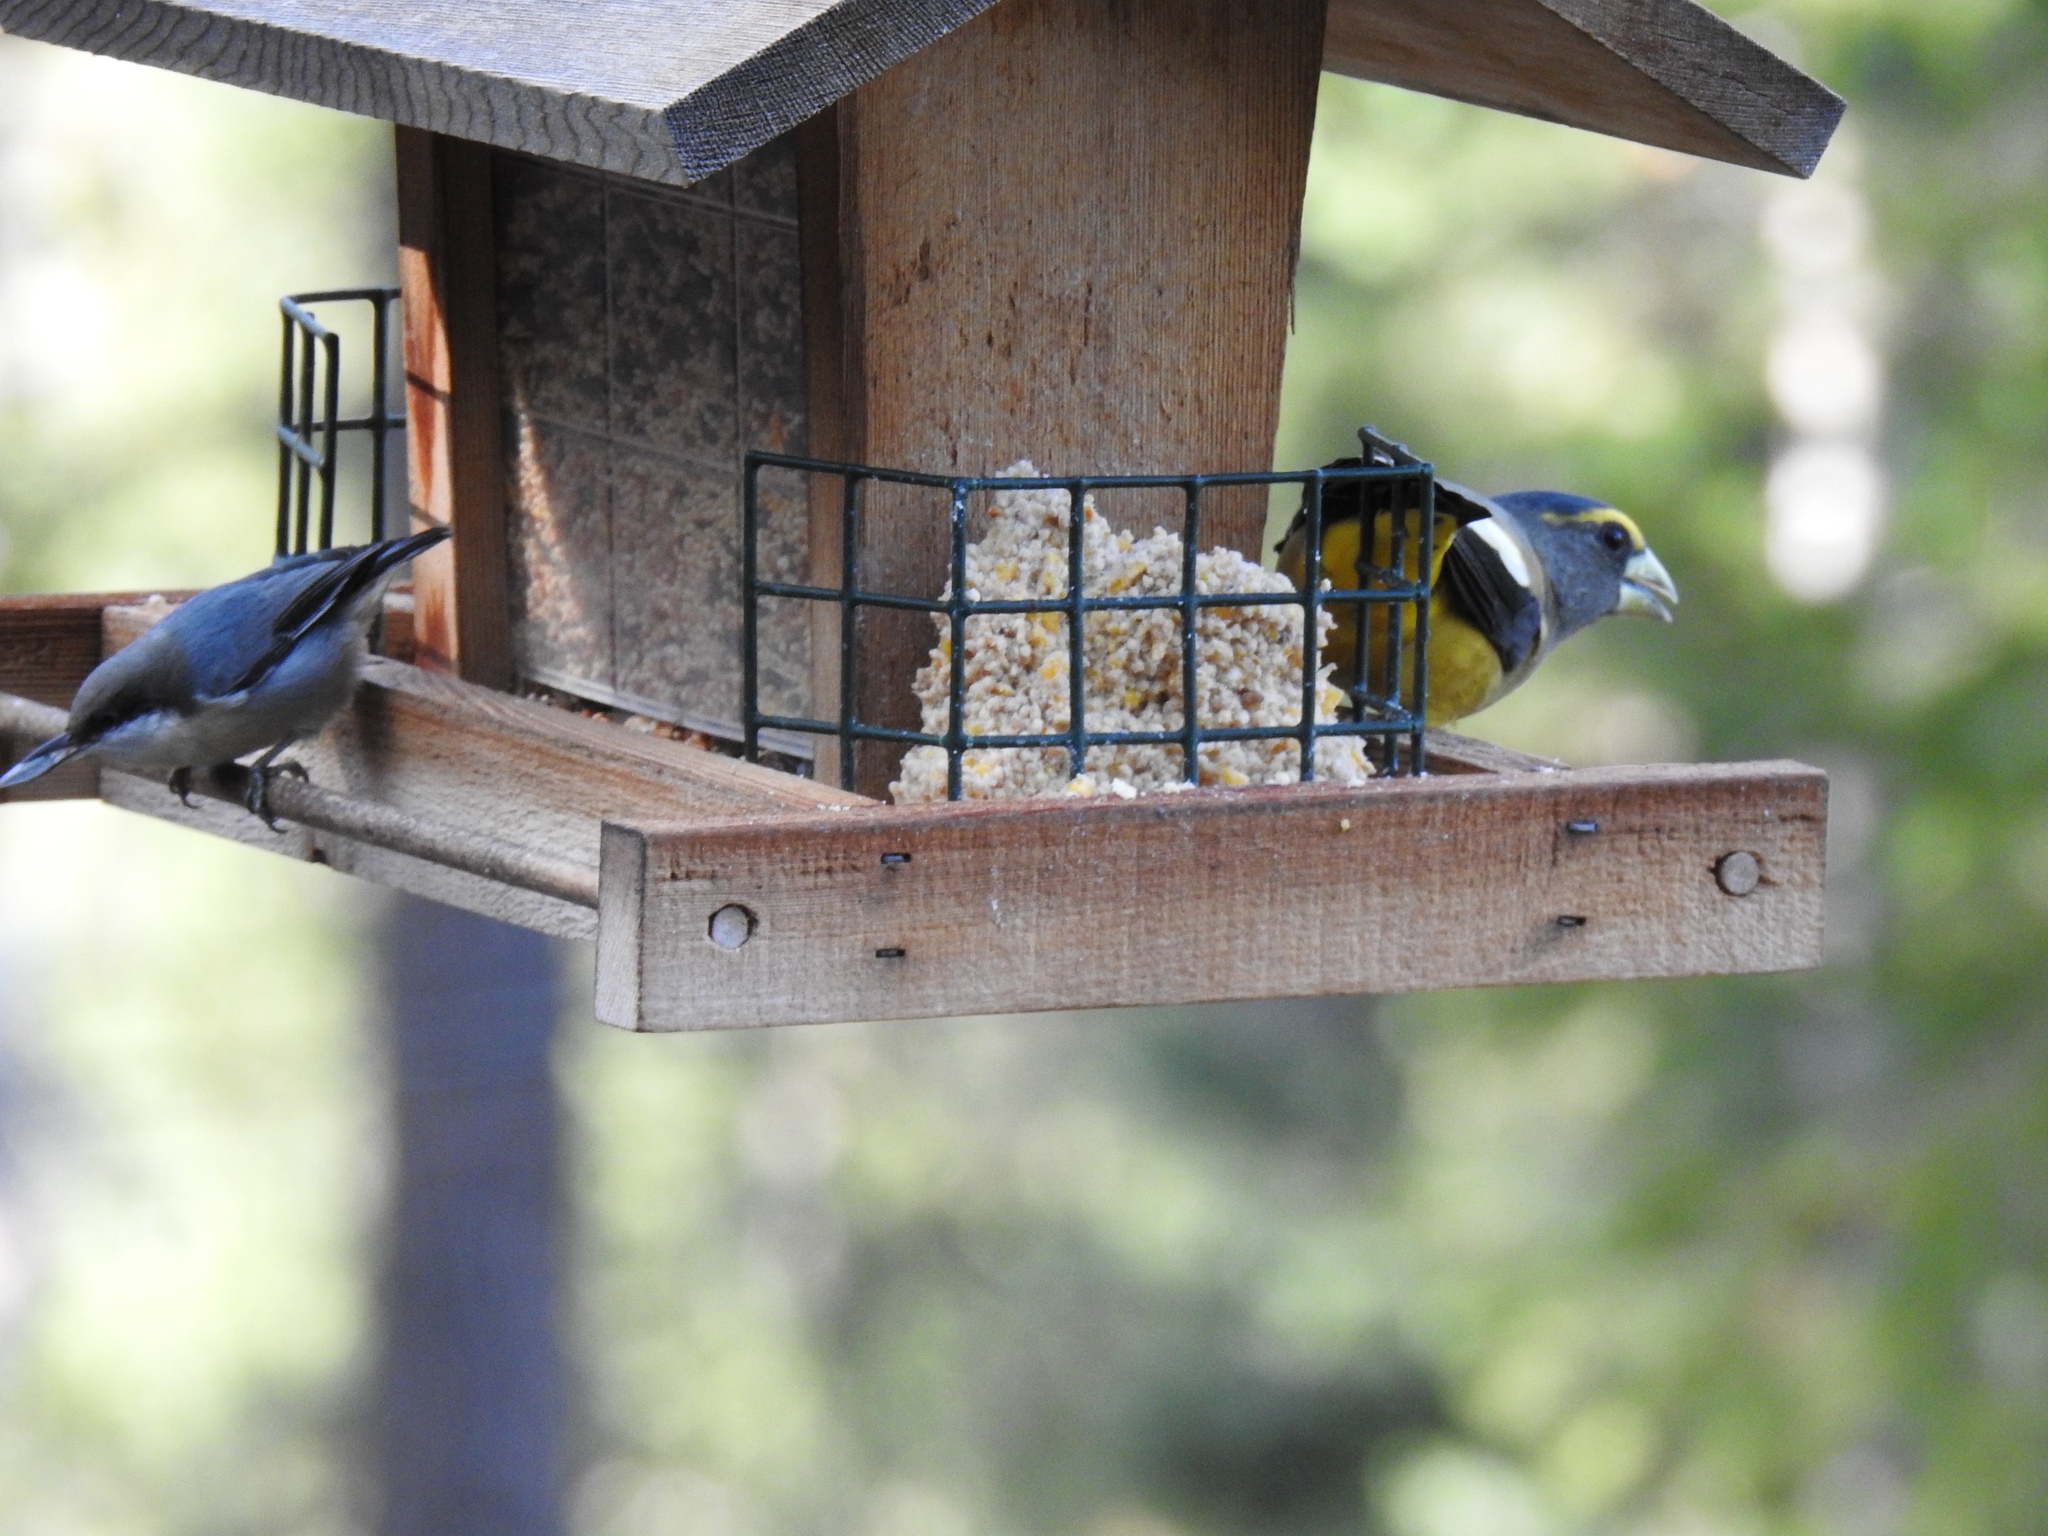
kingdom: Animalia
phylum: Chordata
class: Aves
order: Passeriformes
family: Sittidae
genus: Sitta
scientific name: Sitta pygmaea
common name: Pygmy nuthatch
